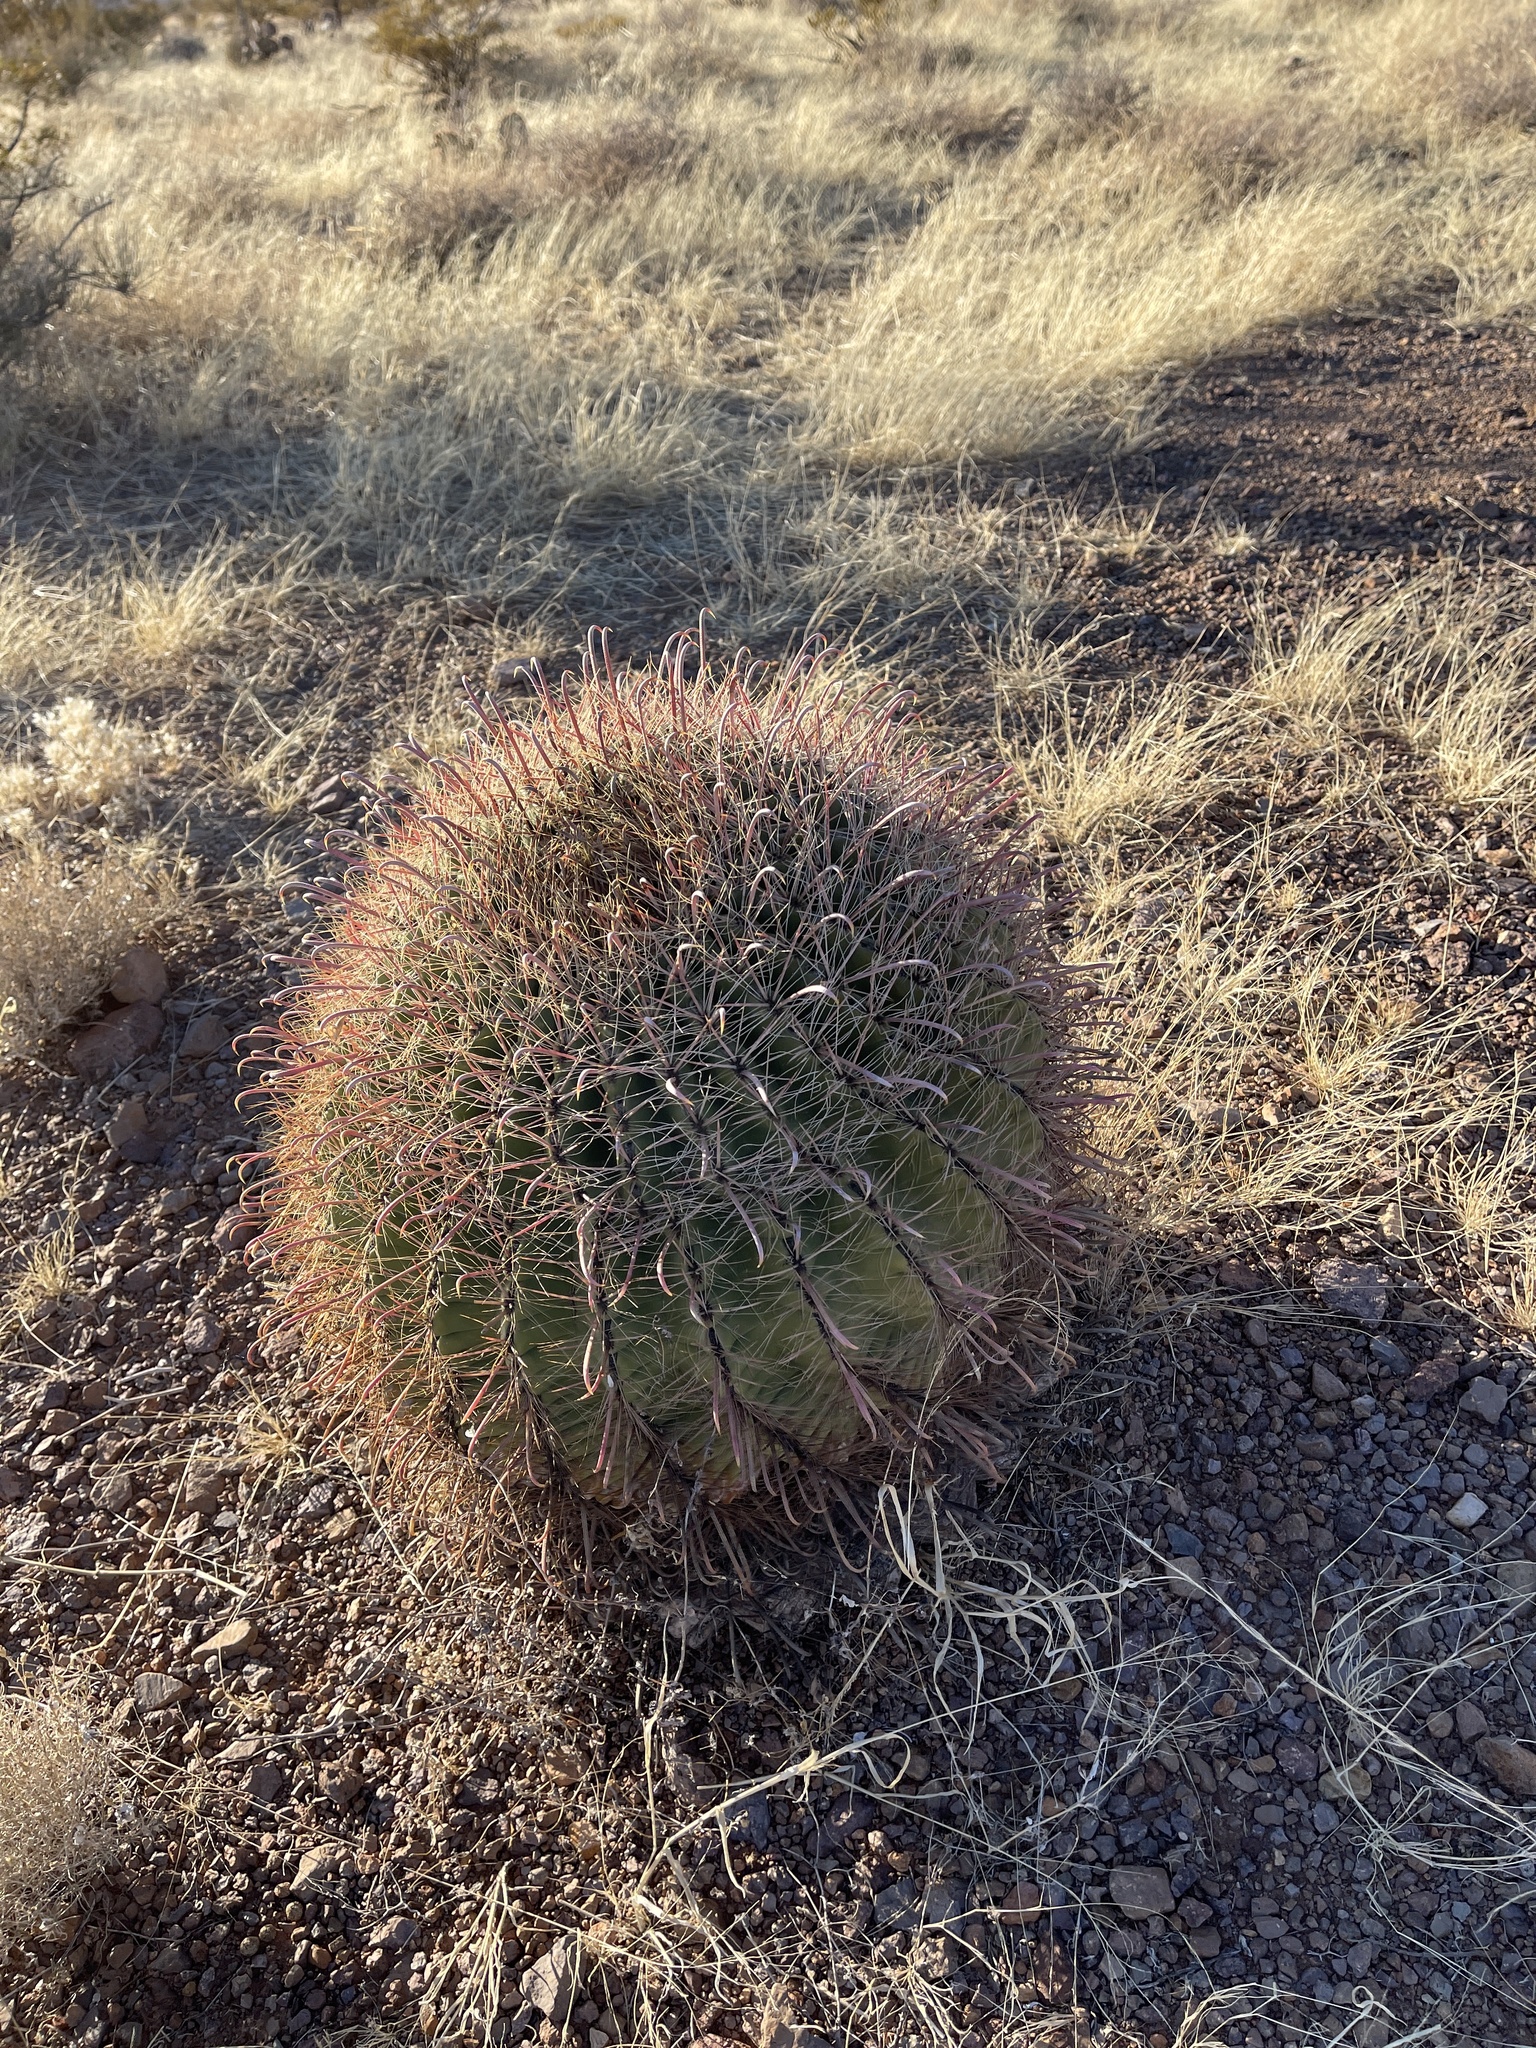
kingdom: Plantae
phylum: Tracheophyta
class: Magnoliopsida
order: Caryophyllales
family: Cactaceae
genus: Ferocactus
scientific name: Ferocactus wislizeni
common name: Candy barrel cactus
